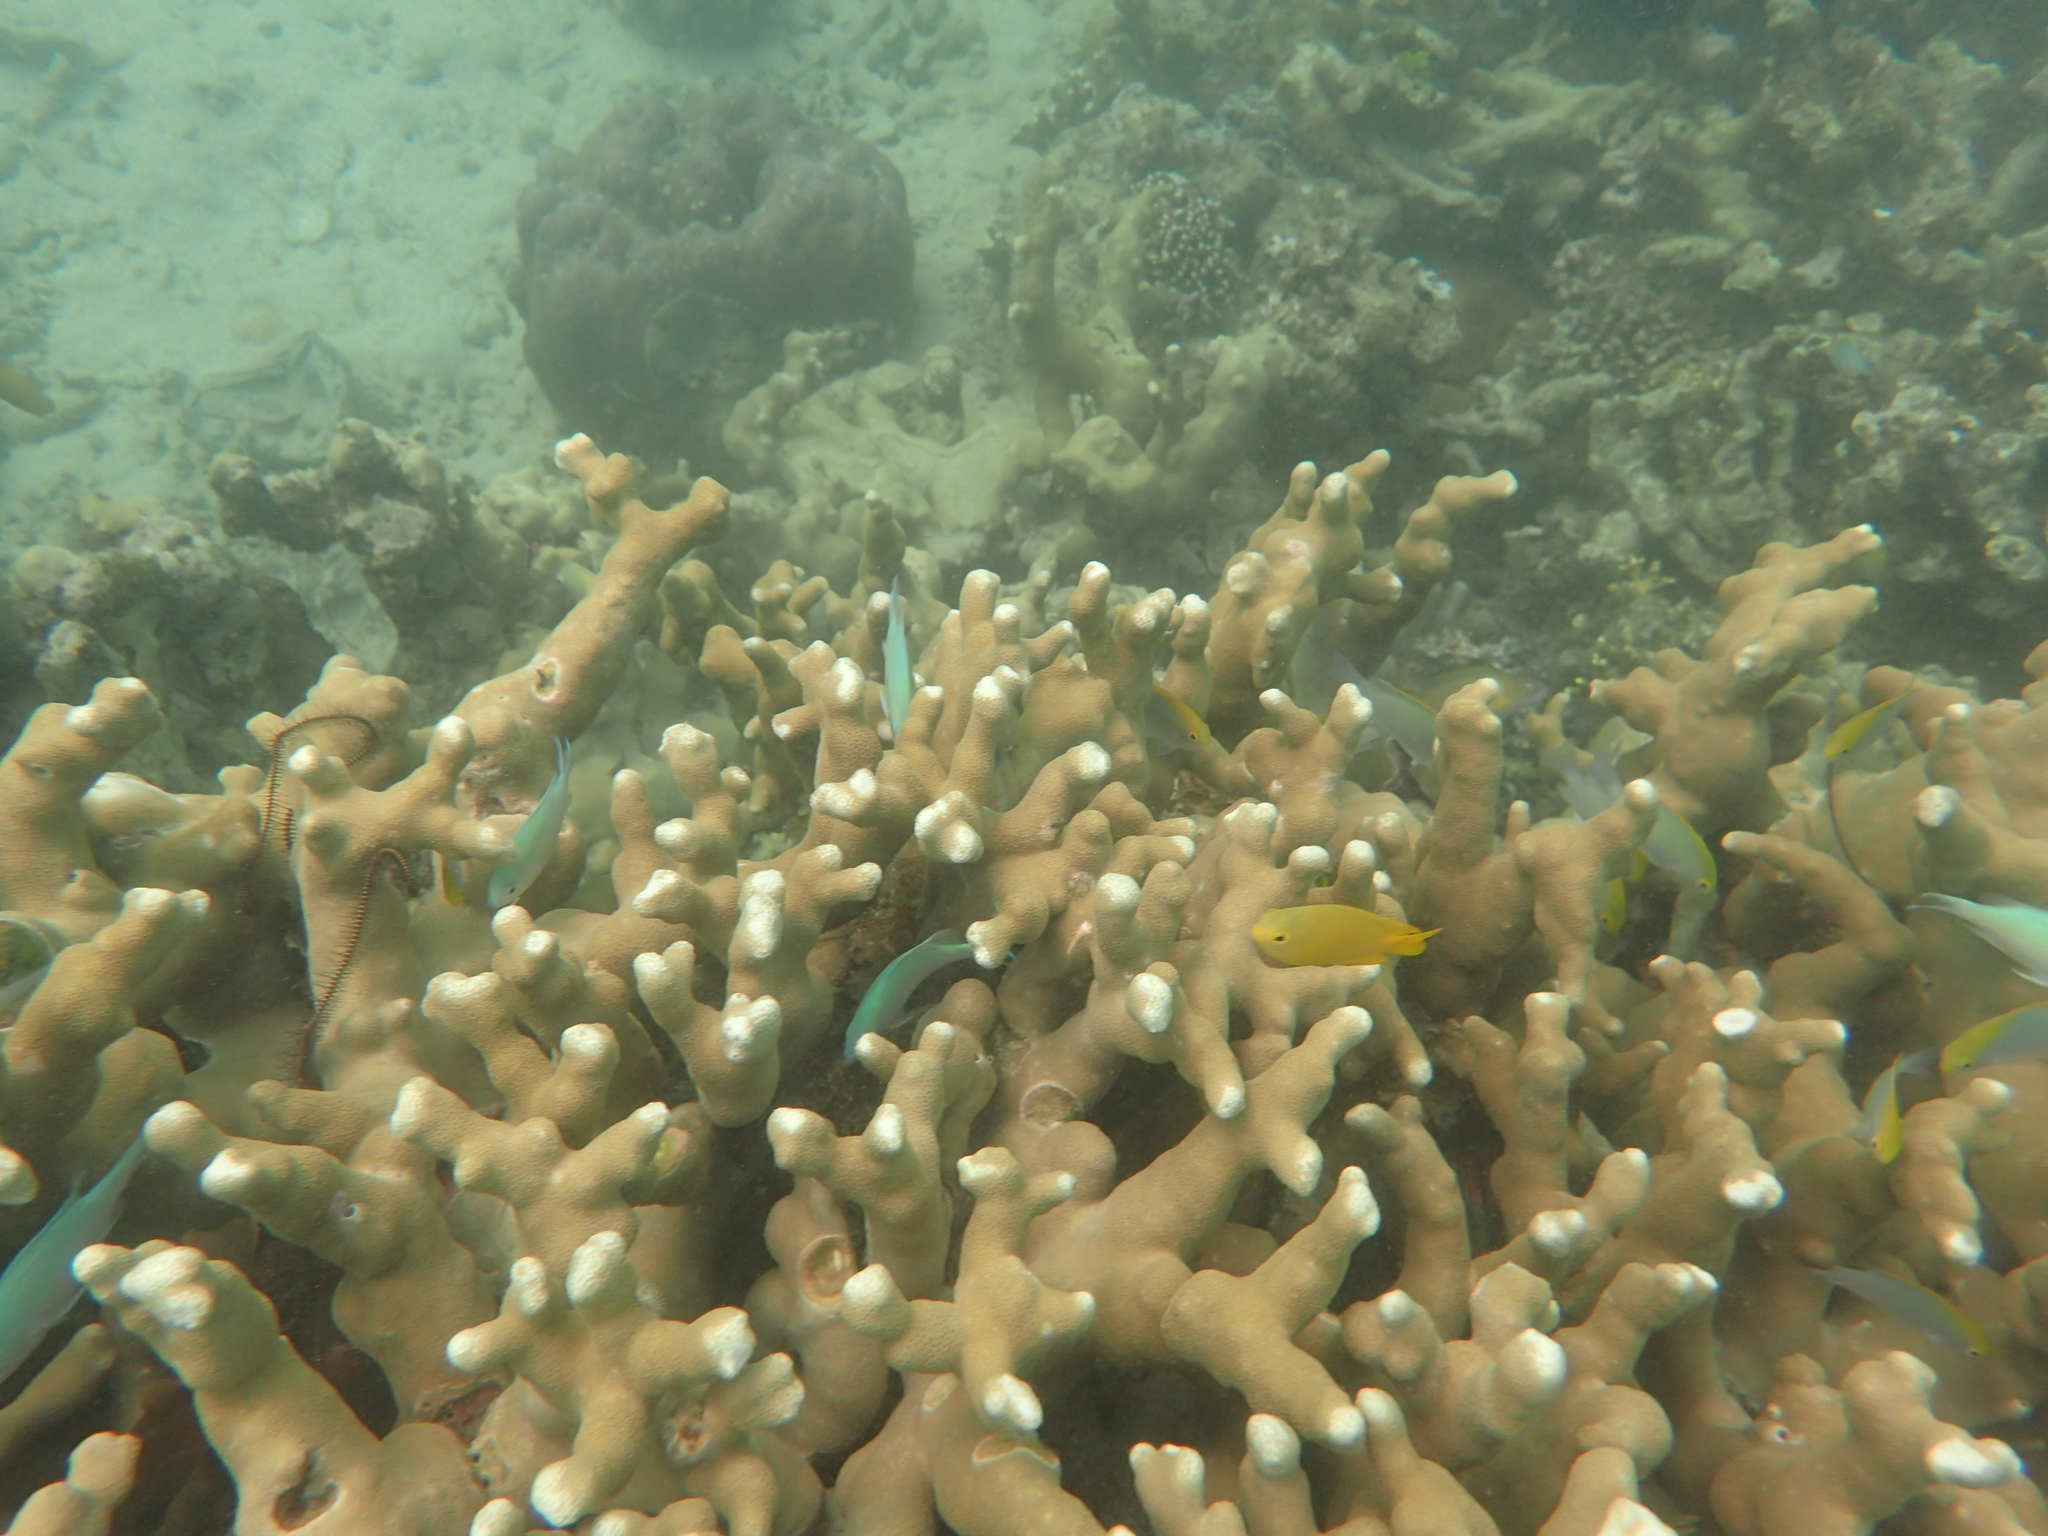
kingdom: Animalia
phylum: Chordata
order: Perciformes
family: Pomacentridae
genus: Pomacentrus
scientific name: Pomacentrus moluccensis
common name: Lemon damsel
